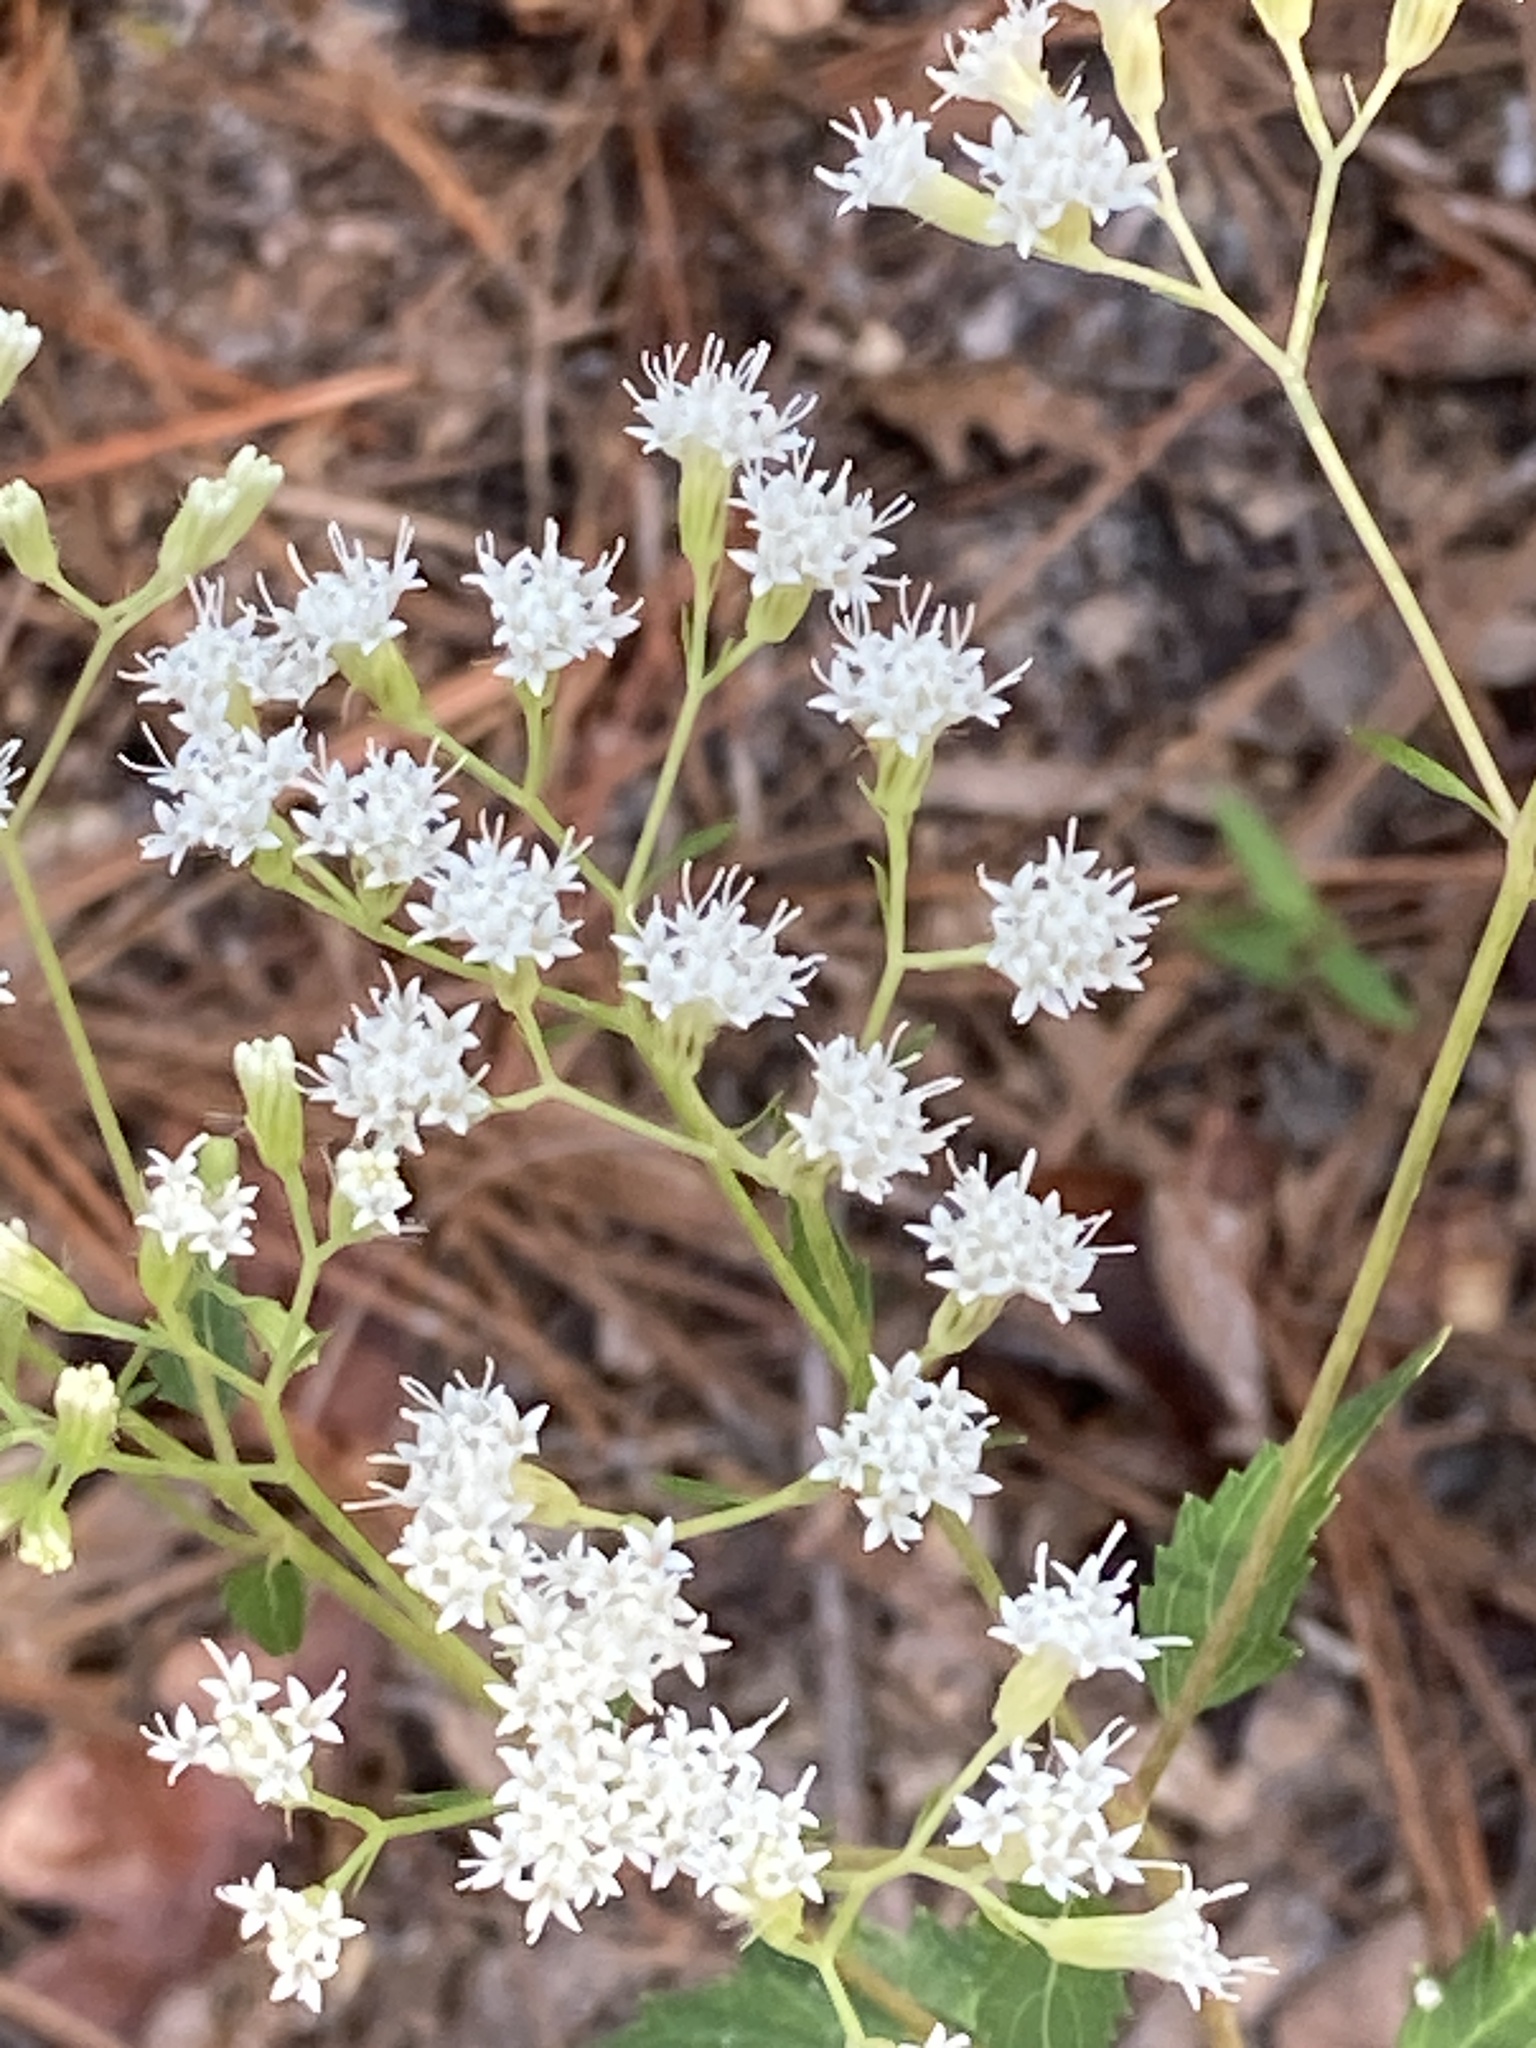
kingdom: Plantae
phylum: Tracheophyta
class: Magnoliopsida
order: Asterales
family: Asteraceae
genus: Ageratina
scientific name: Ageratina jucunda
